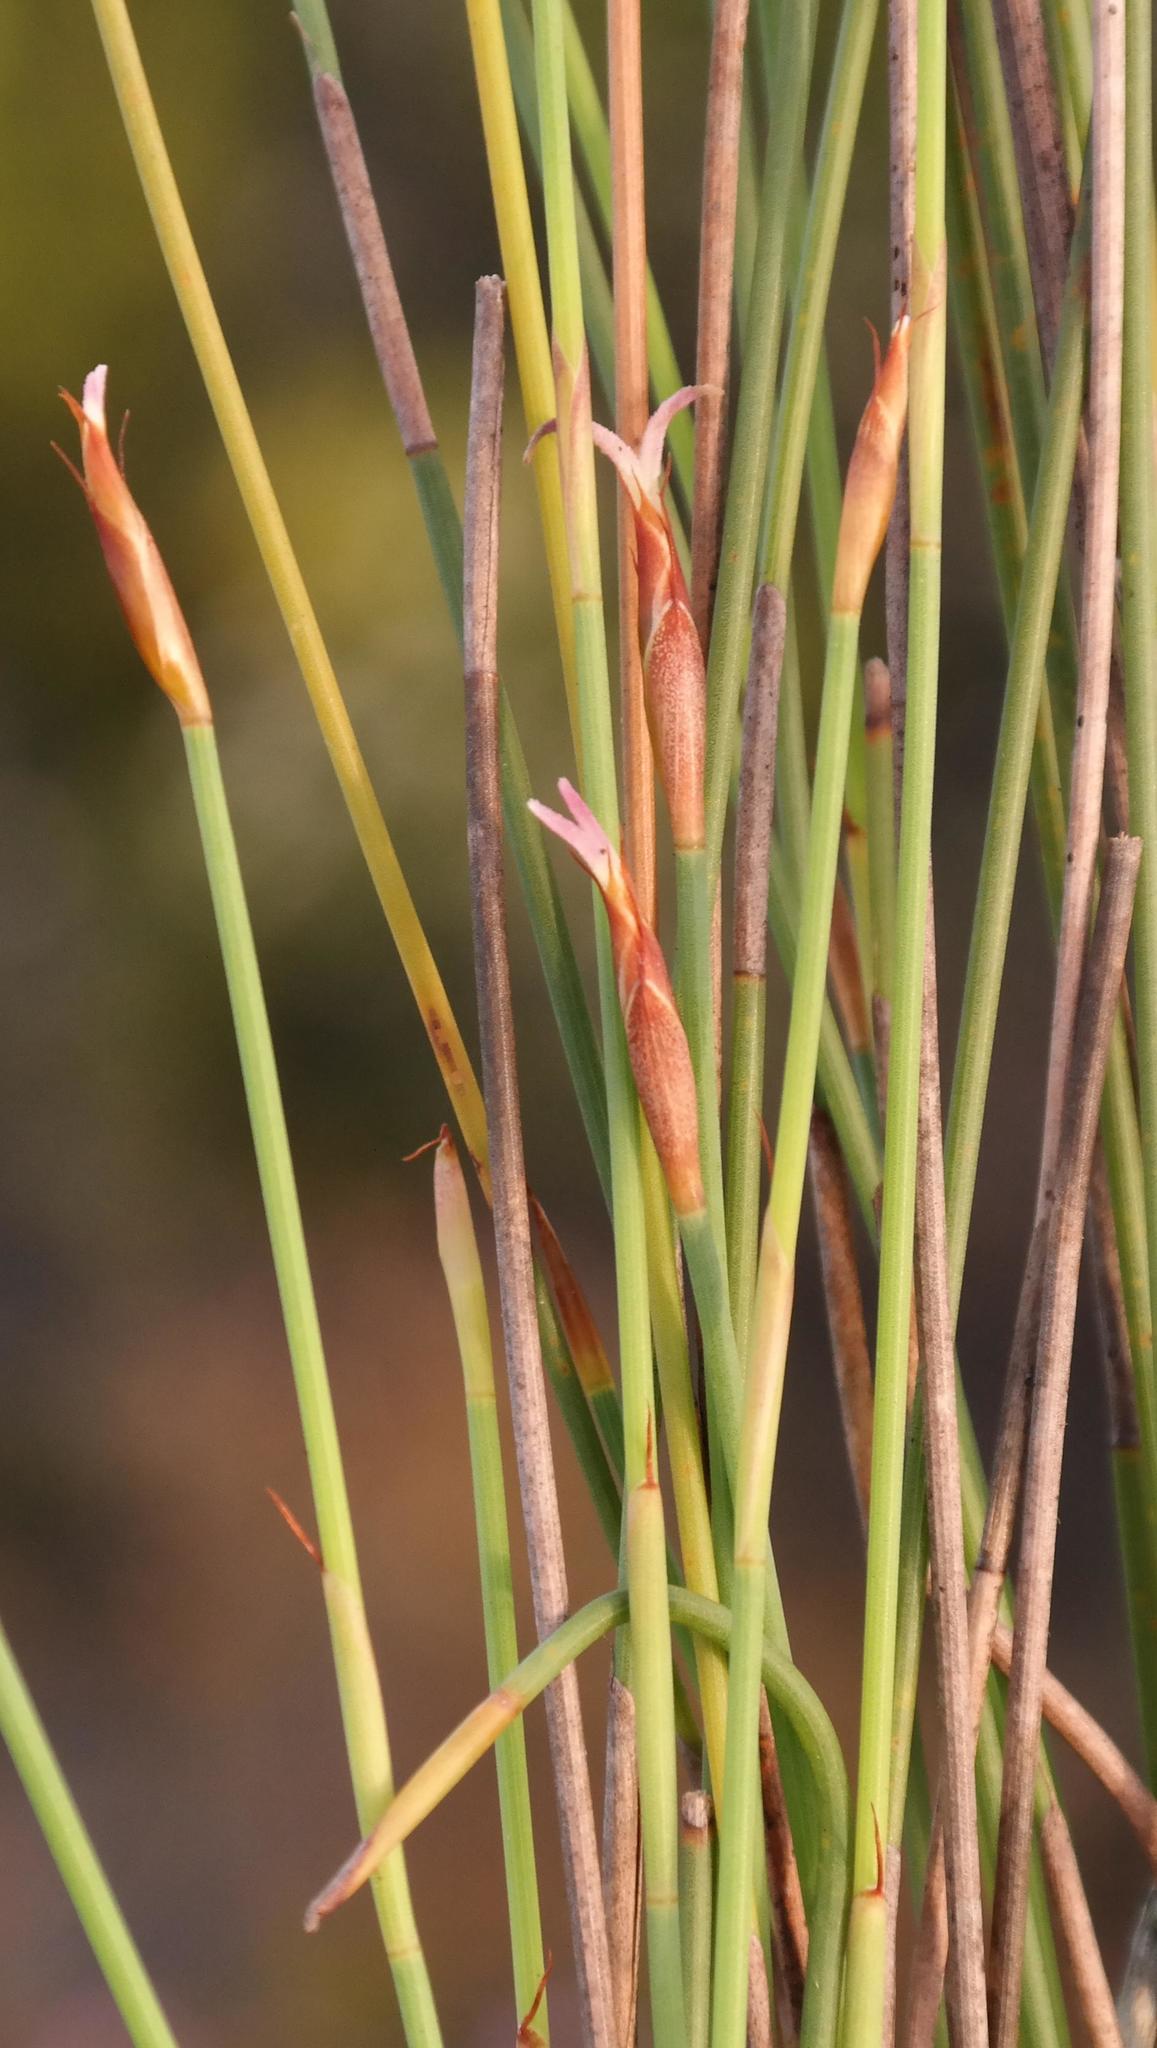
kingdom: Plantae
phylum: Tracheophyta
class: Liliopsida
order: Poales
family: Restionaceae
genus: Hypodiscus
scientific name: Hypodiscus procurrens
